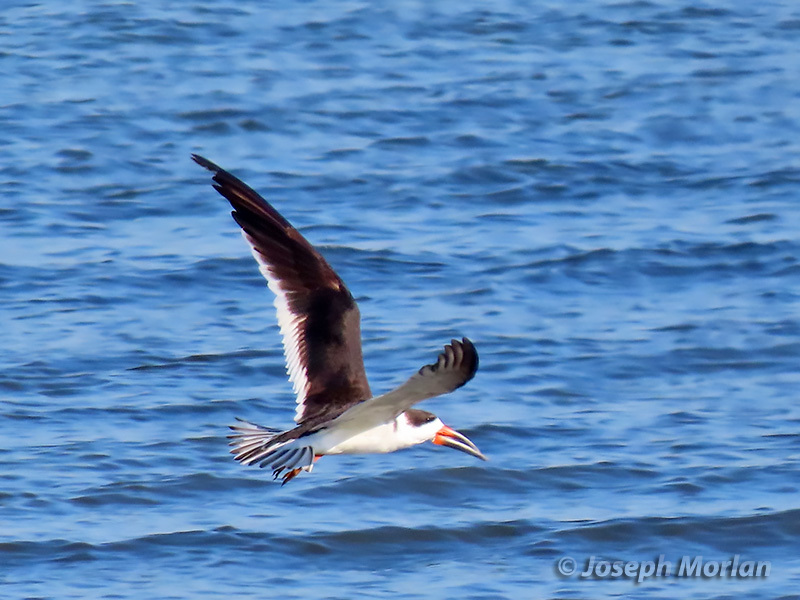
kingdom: Animalia
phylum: Chordata
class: Aves
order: Charadriiformes
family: Laridae
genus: Rynchops
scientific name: Rynchops niger
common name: Black skimmer
